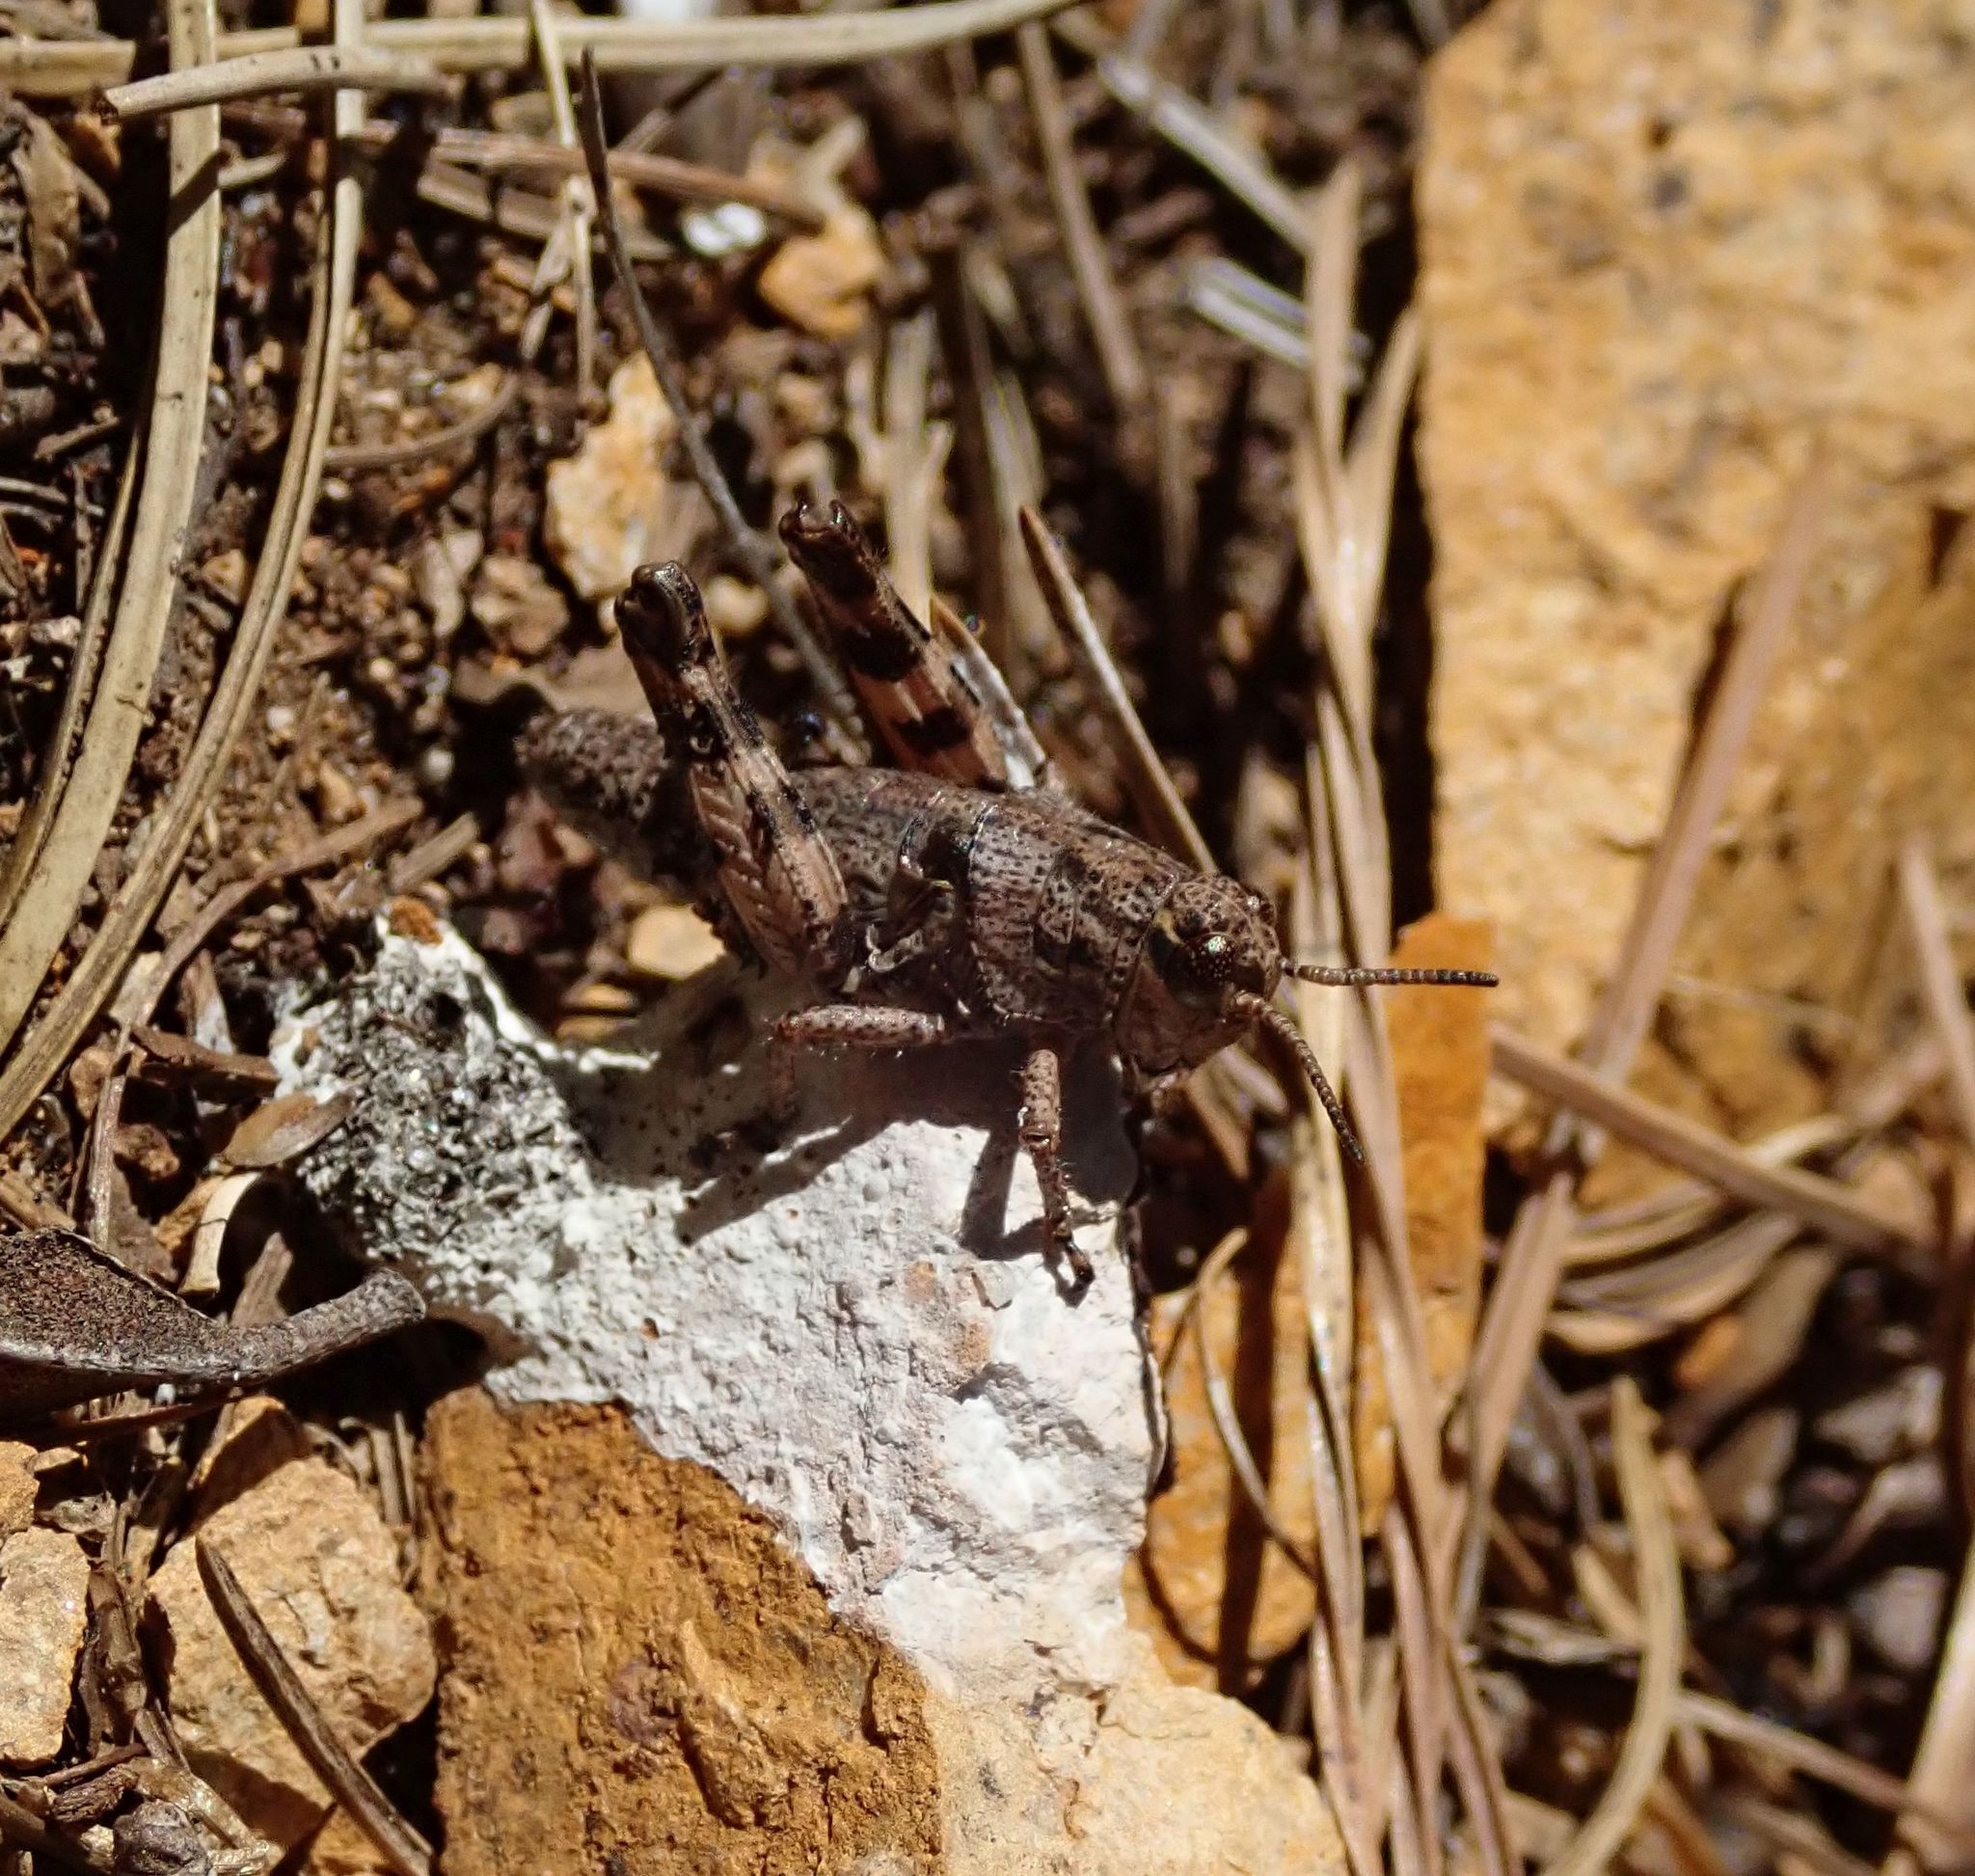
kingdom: Animalia
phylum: Arthropoda
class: Insecta
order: Orthoptera
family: Acrididae
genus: Podisma
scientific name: Podisma pedestris
